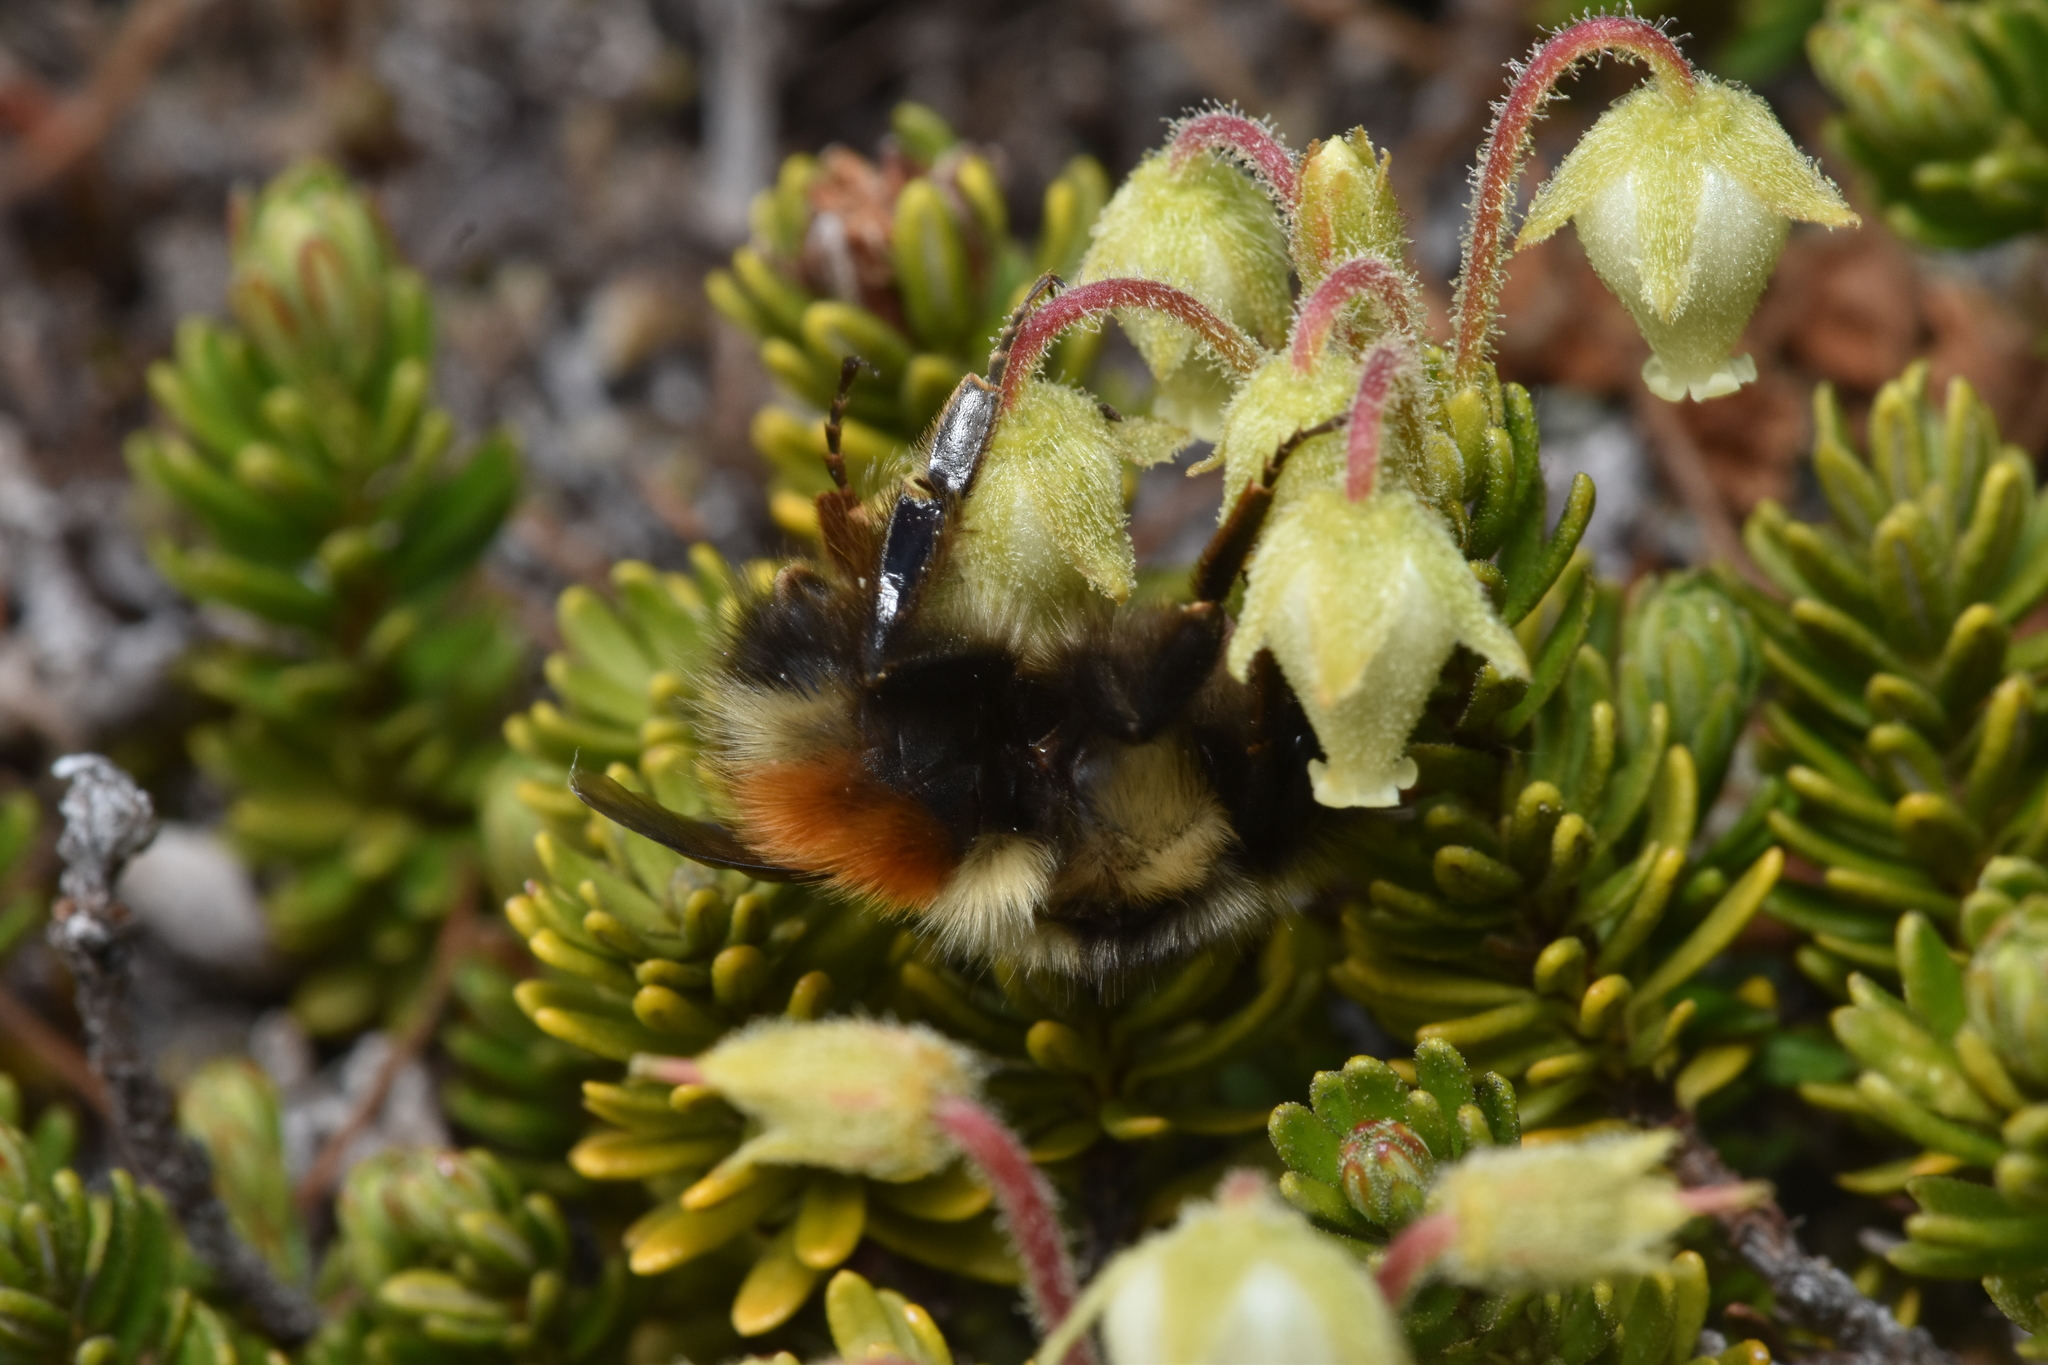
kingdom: Animalia
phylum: Arthropoda
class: Insecta
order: Hymenoptera
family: Apidae
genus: Bombus
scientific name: Bombus sylvicola
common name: Forest bumble bee
